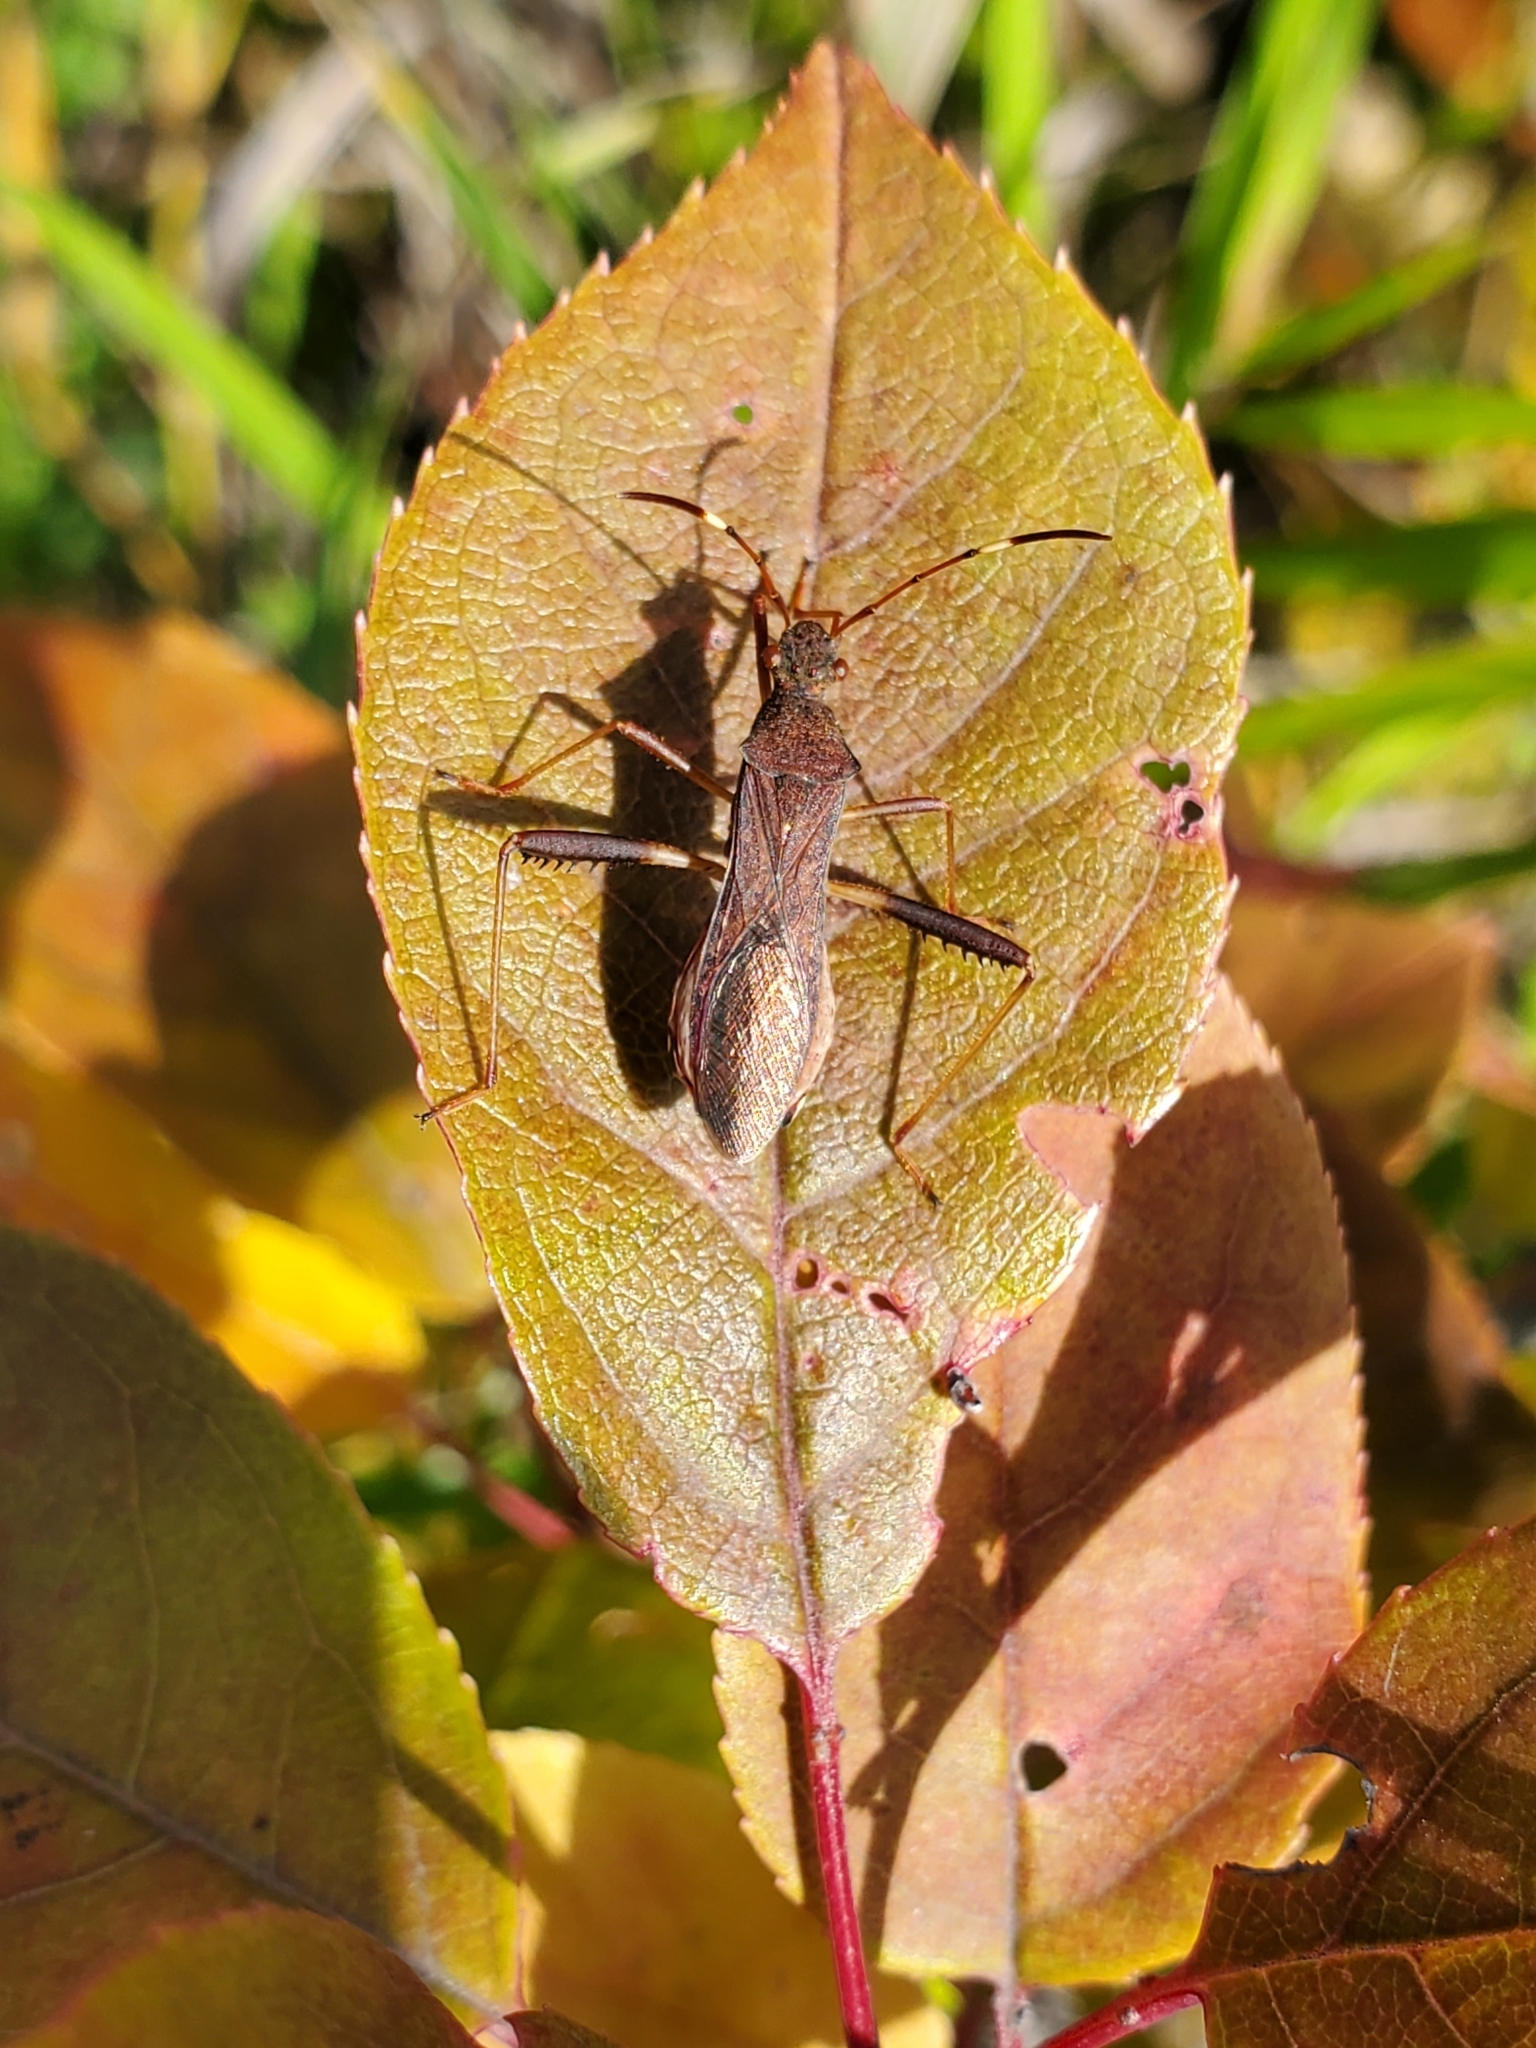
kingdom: Animalia
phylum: Arthropoda
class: Insecta
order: Hemiptera
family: Alydidae
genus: Megalotomus
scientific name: Megalotomus quinquespinosus
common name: Lupine bug
